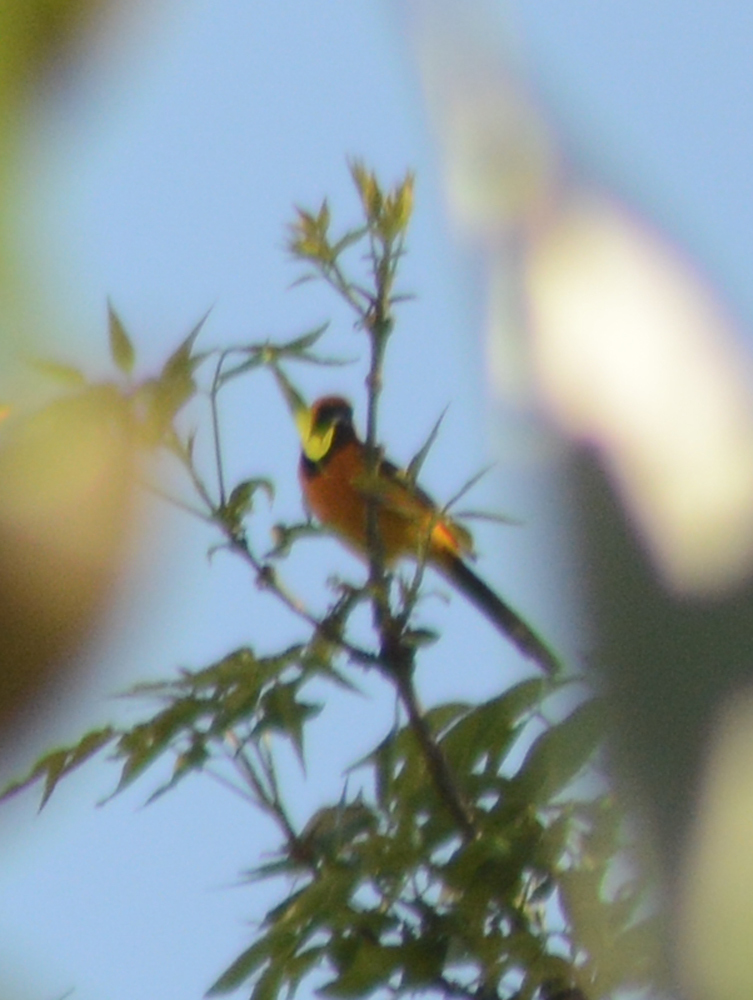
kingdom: Animalia
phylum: Chordata
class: Aves
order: Passeriformes
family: Icteridae
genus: Icterus
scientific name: Icterus cucullatus
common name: Hooded oriole
